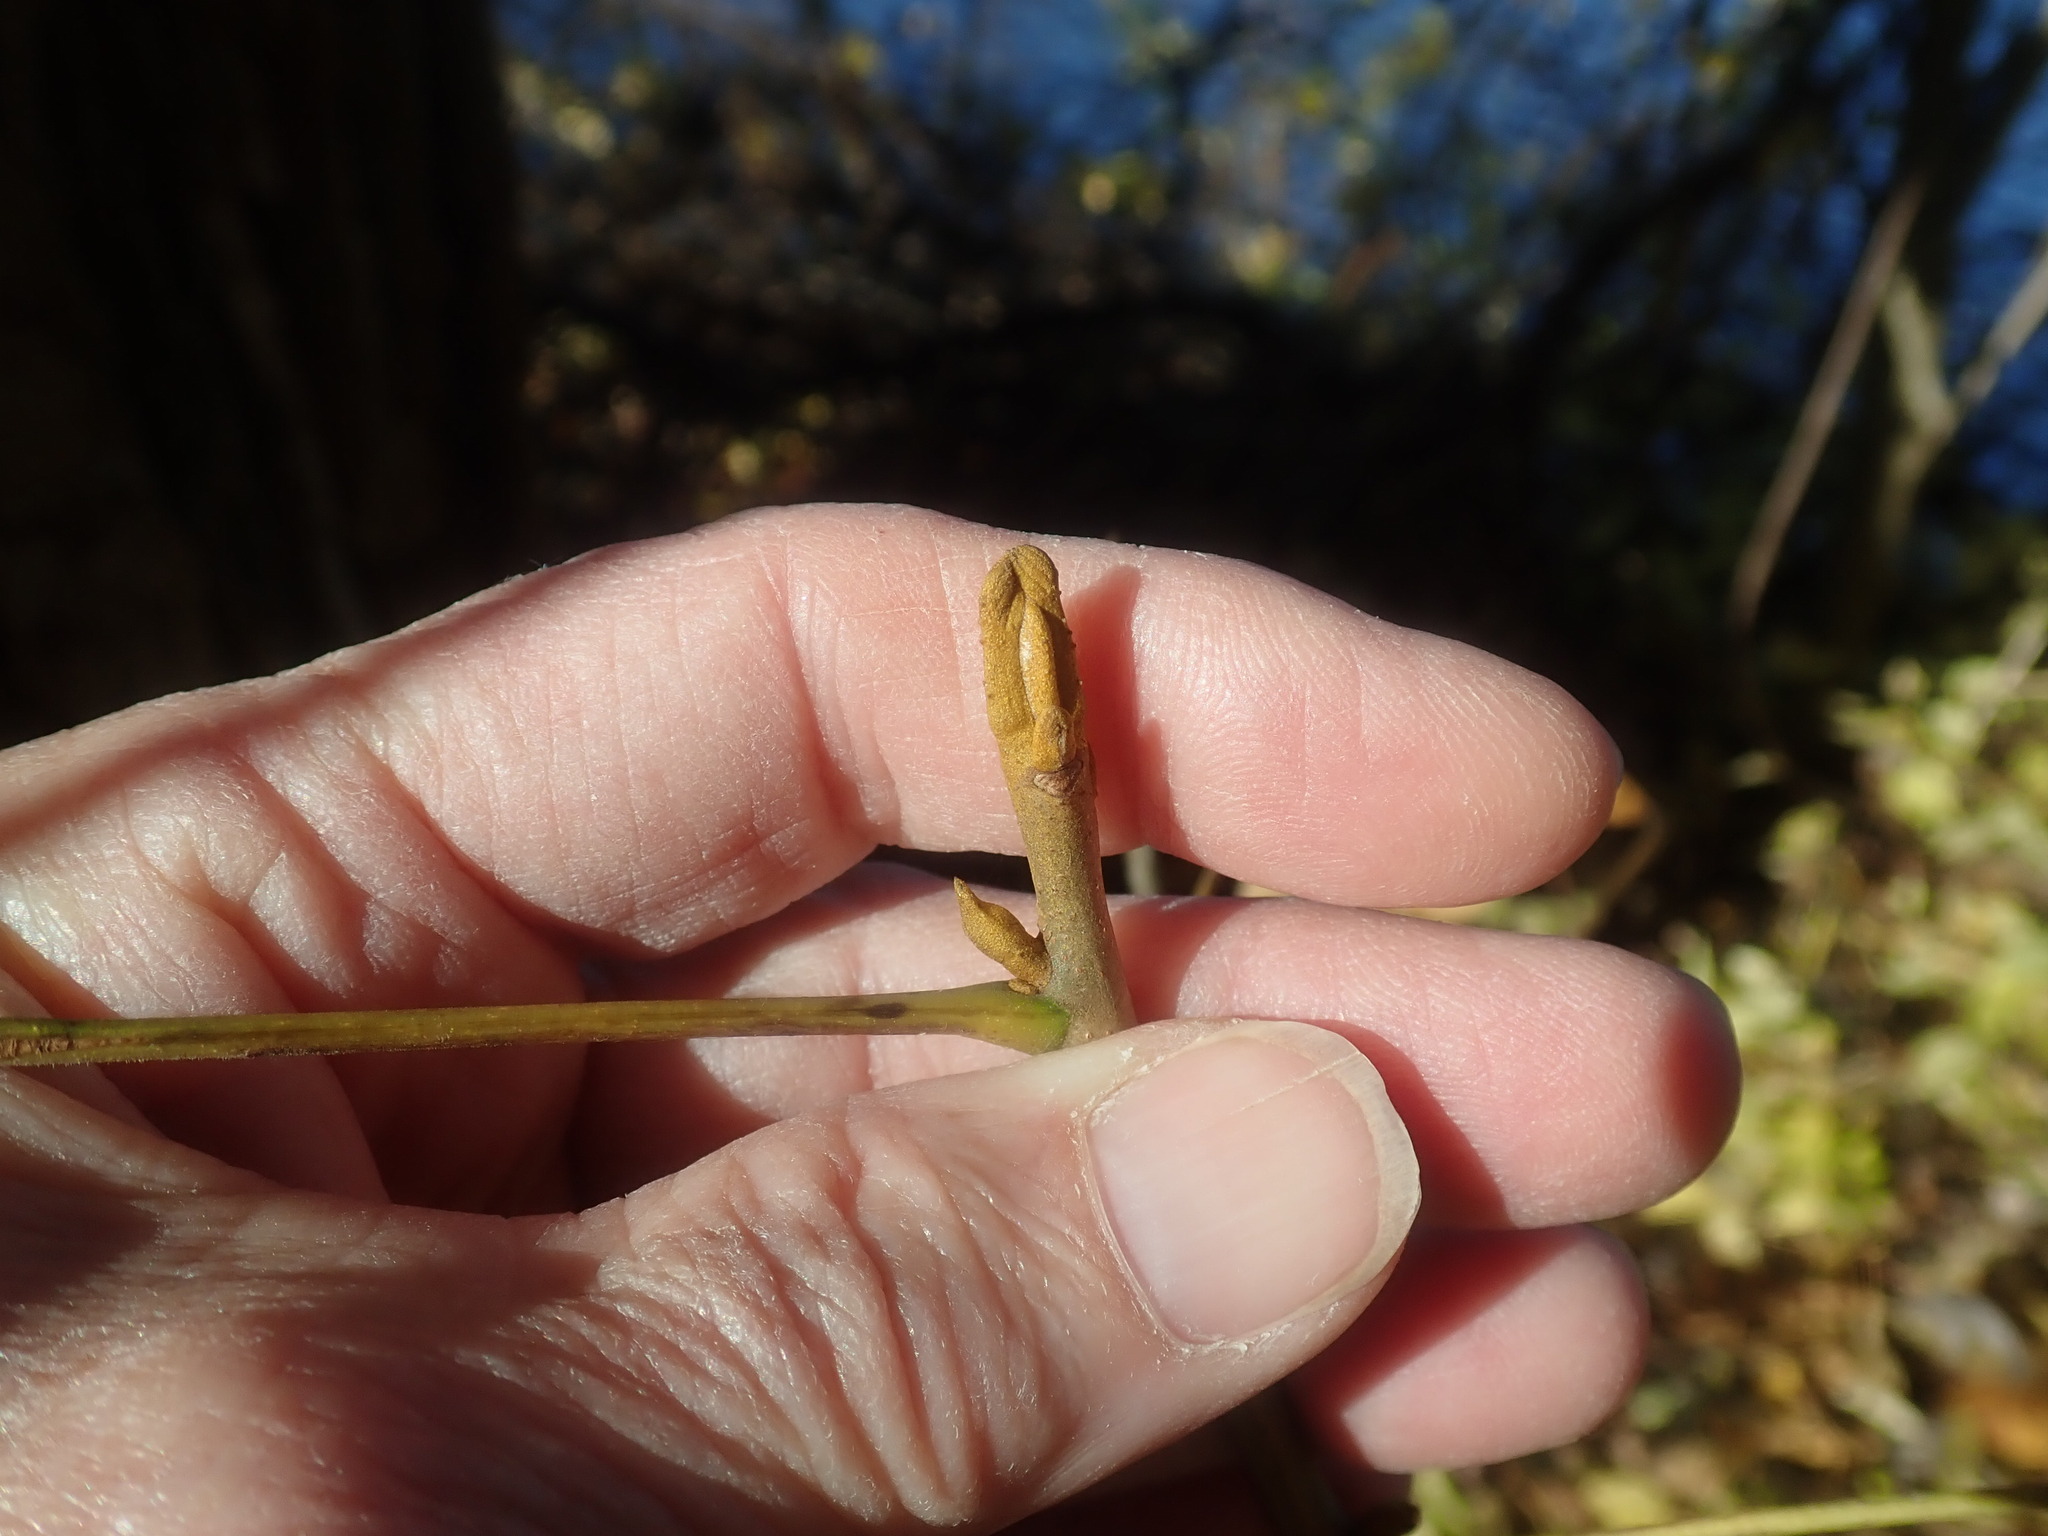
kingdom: Plantae
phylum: Tracheophyta
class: Magnoliopsida
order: Fagales
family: Juglandaceae
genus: Carya
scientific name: Carya cordiformis
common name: Bitternut hickory
